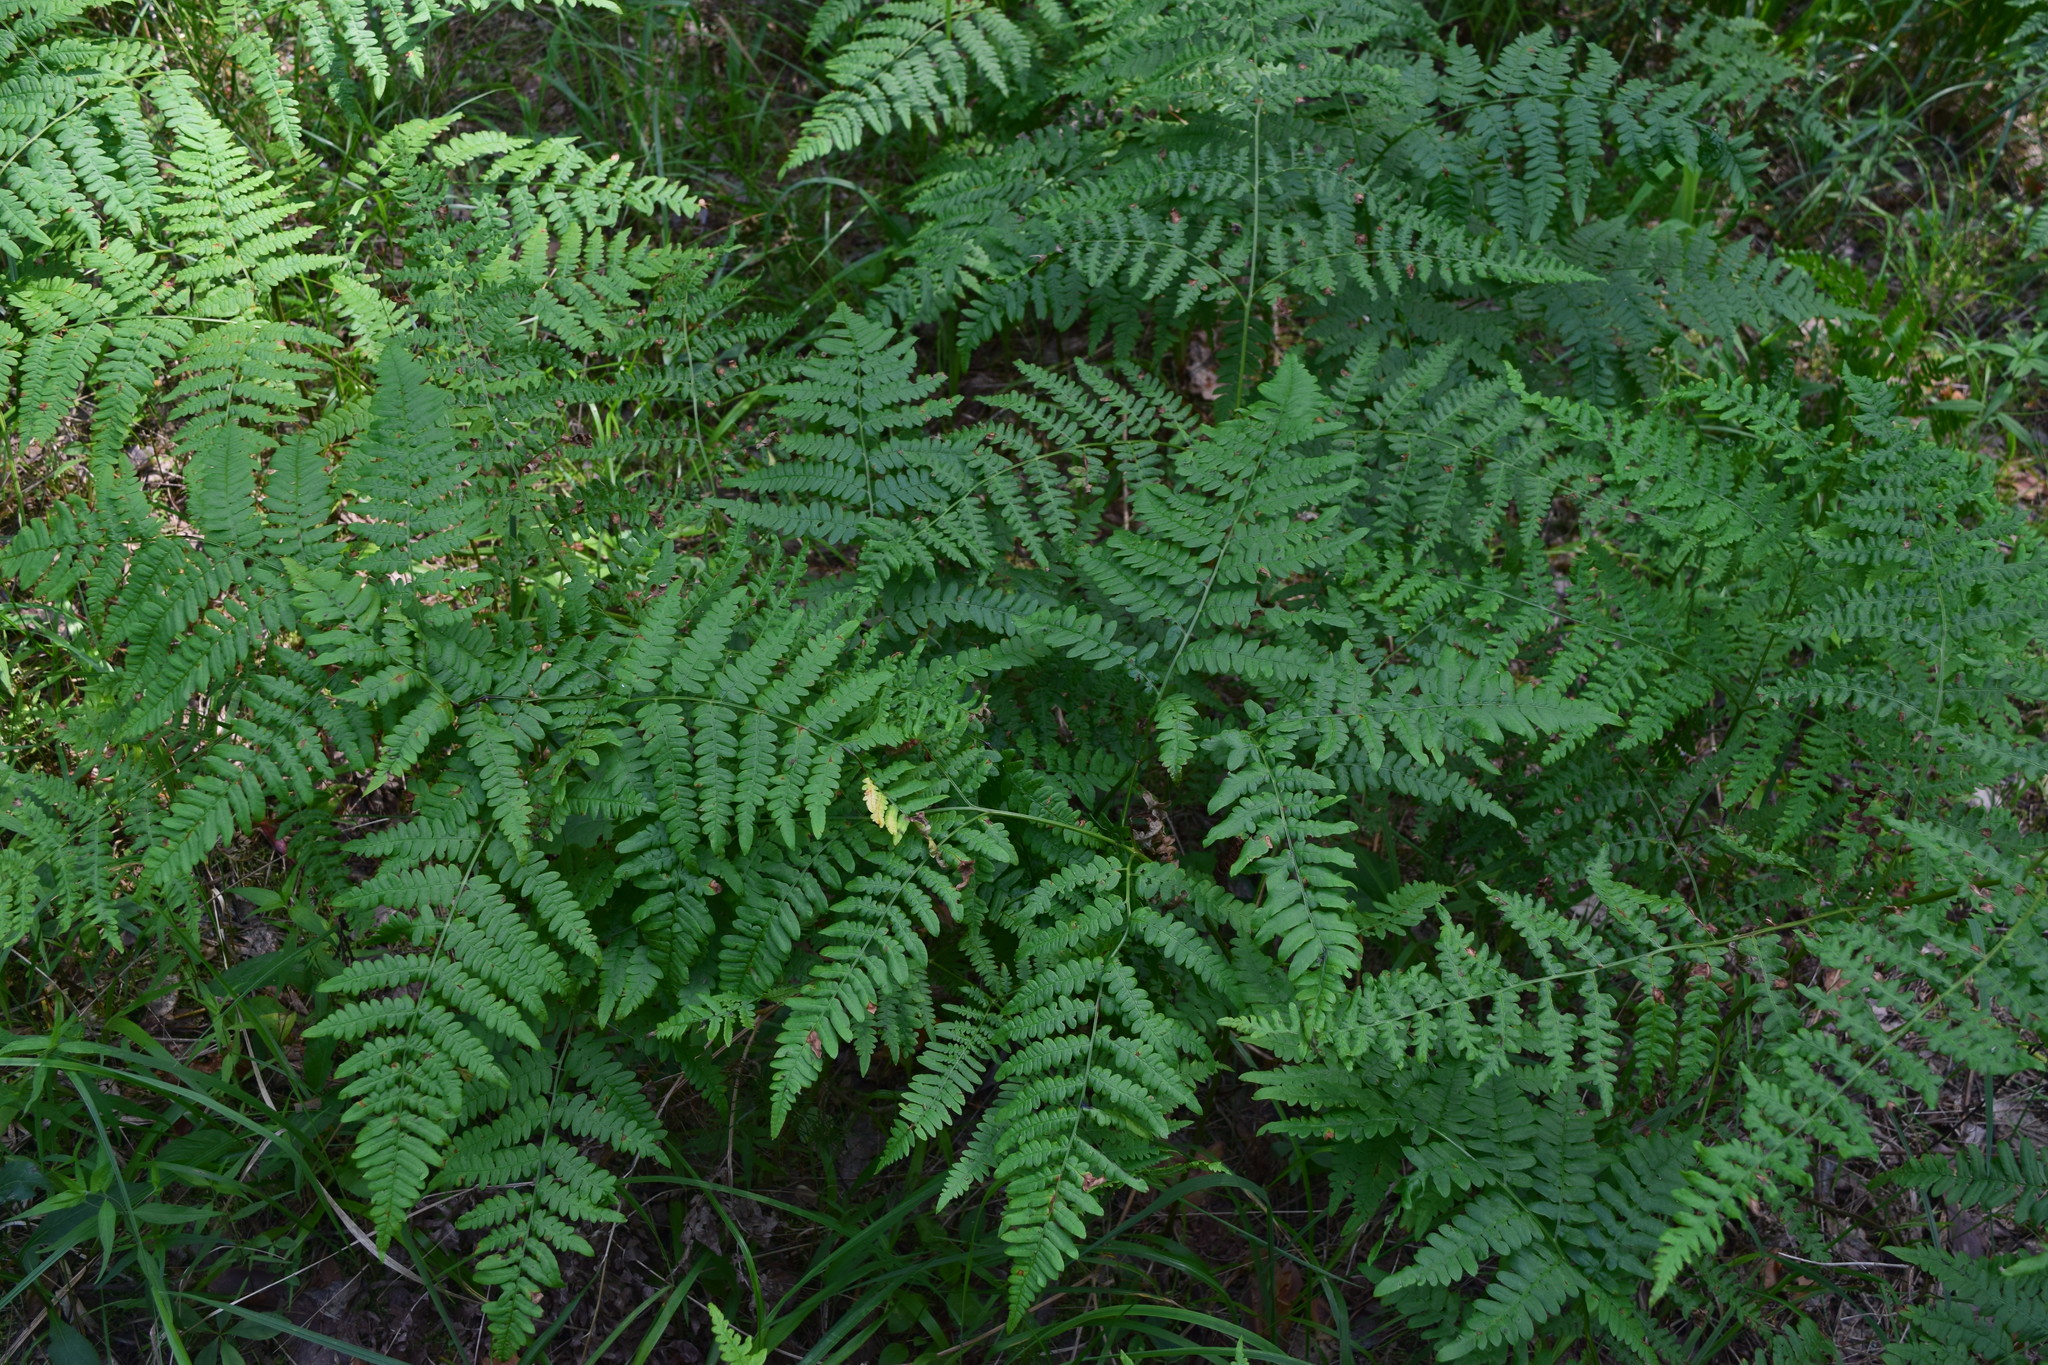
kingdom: Plantae
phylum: Tracheophyta
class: Polypodiopsida
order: Polypodiales
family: Dennstaedtiaceae
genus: Pteridium
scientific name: Pteridium aquilinum
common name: Bracken
